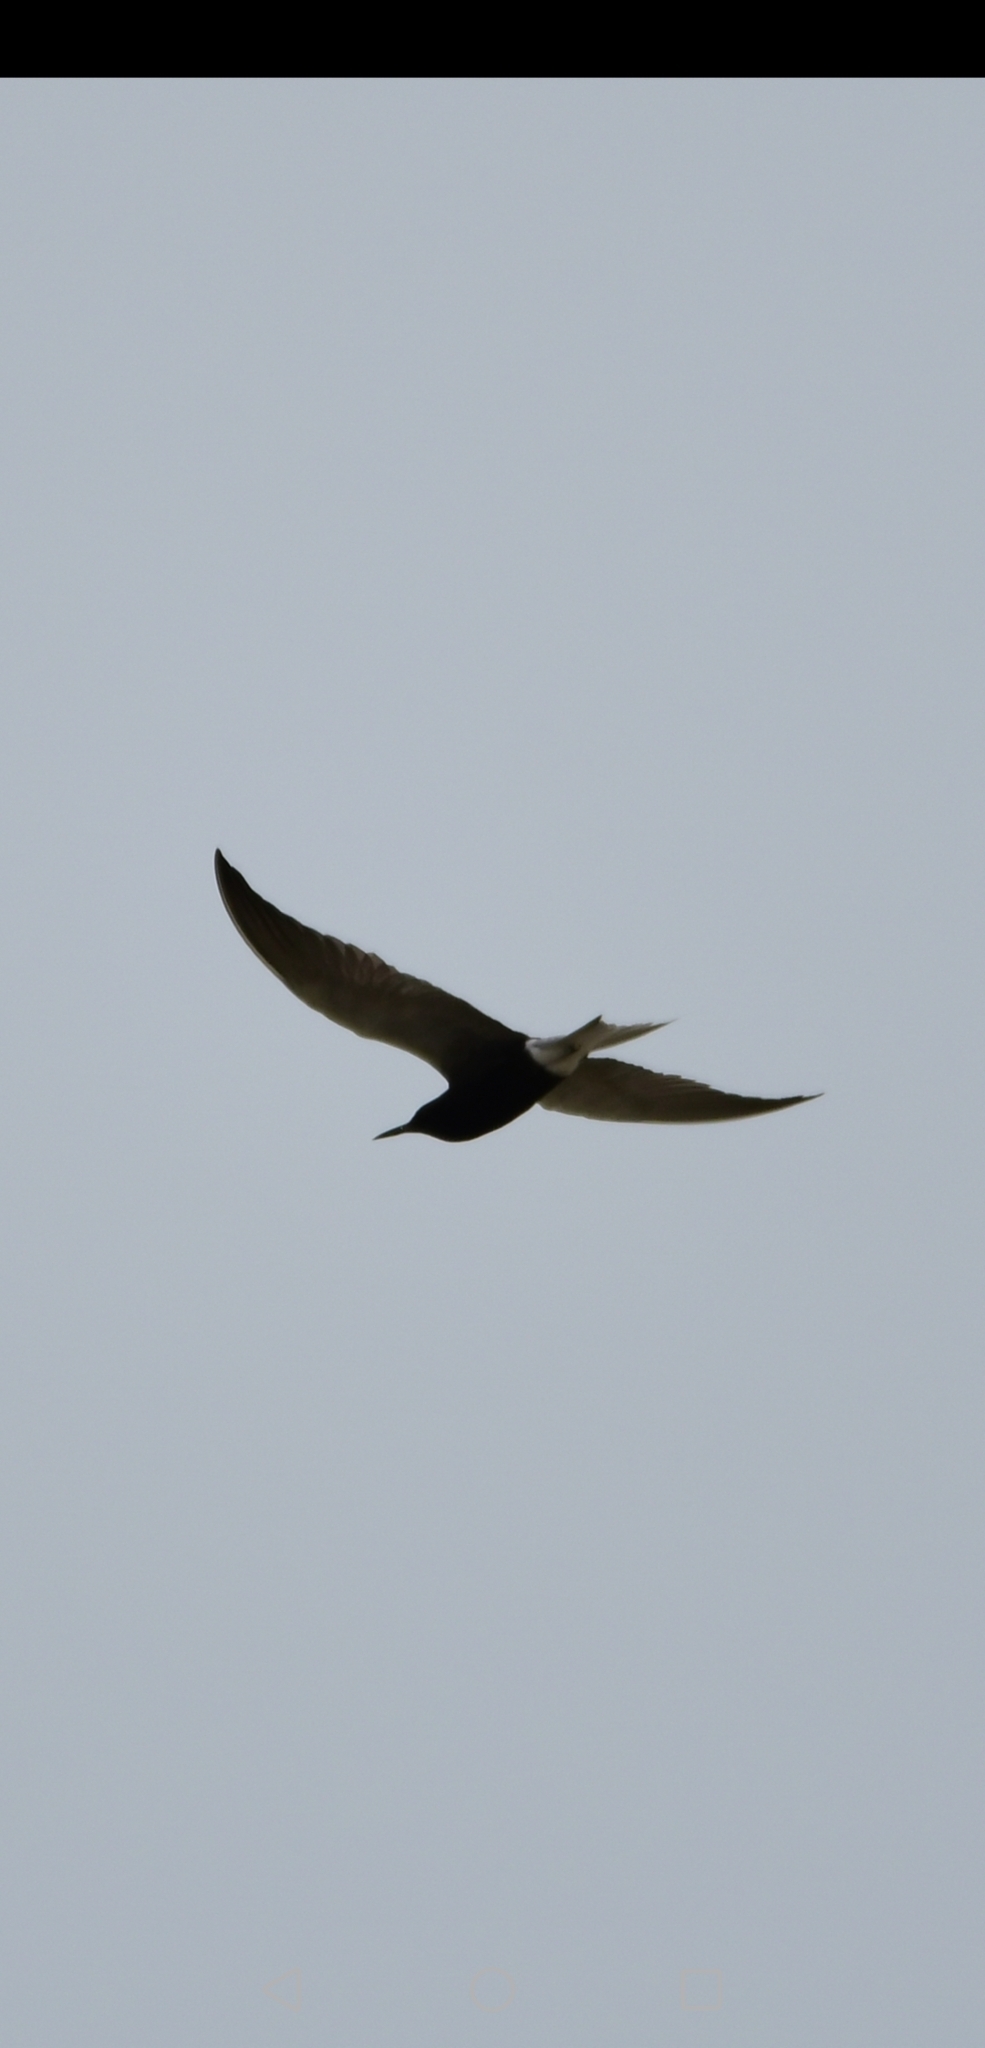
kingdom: Animalia
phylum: Chordata
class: Aves
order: Charadriiformes
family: Laridae
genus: Chlidonias
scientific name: Chlidonias niger
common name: Black tern
